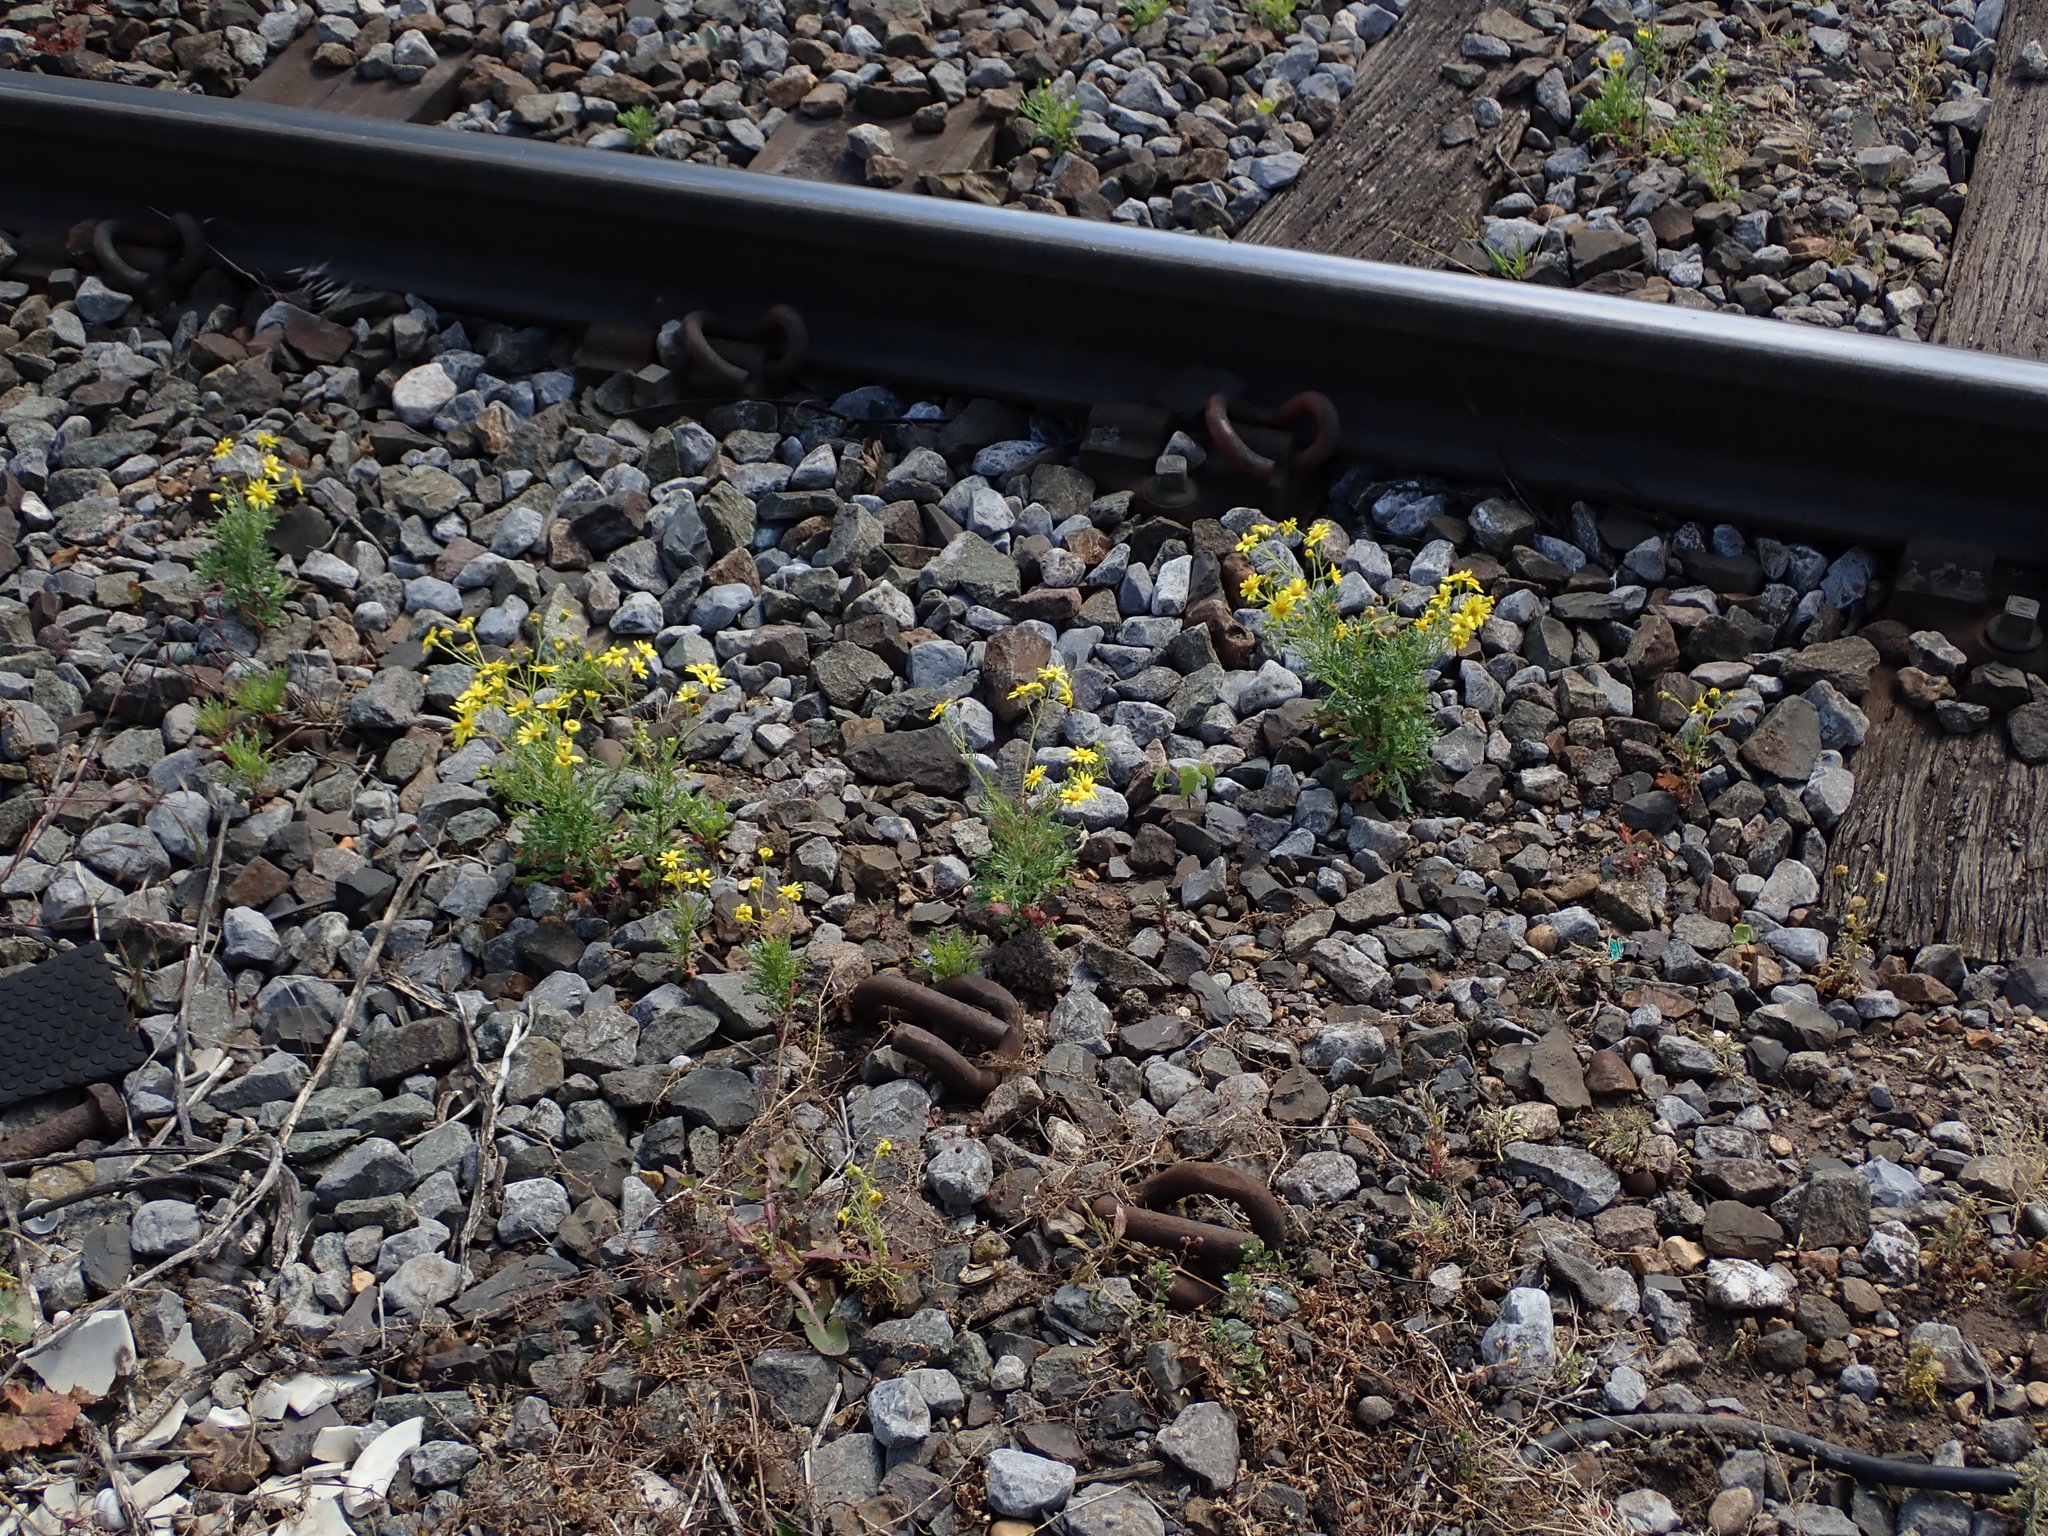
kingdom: Plantae
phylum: Tracheophyta
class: Magnoliopsida
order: Asterales
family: Asteraceae
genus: Senecio
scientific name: Senecio squalidus
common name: Oxford ragwort
